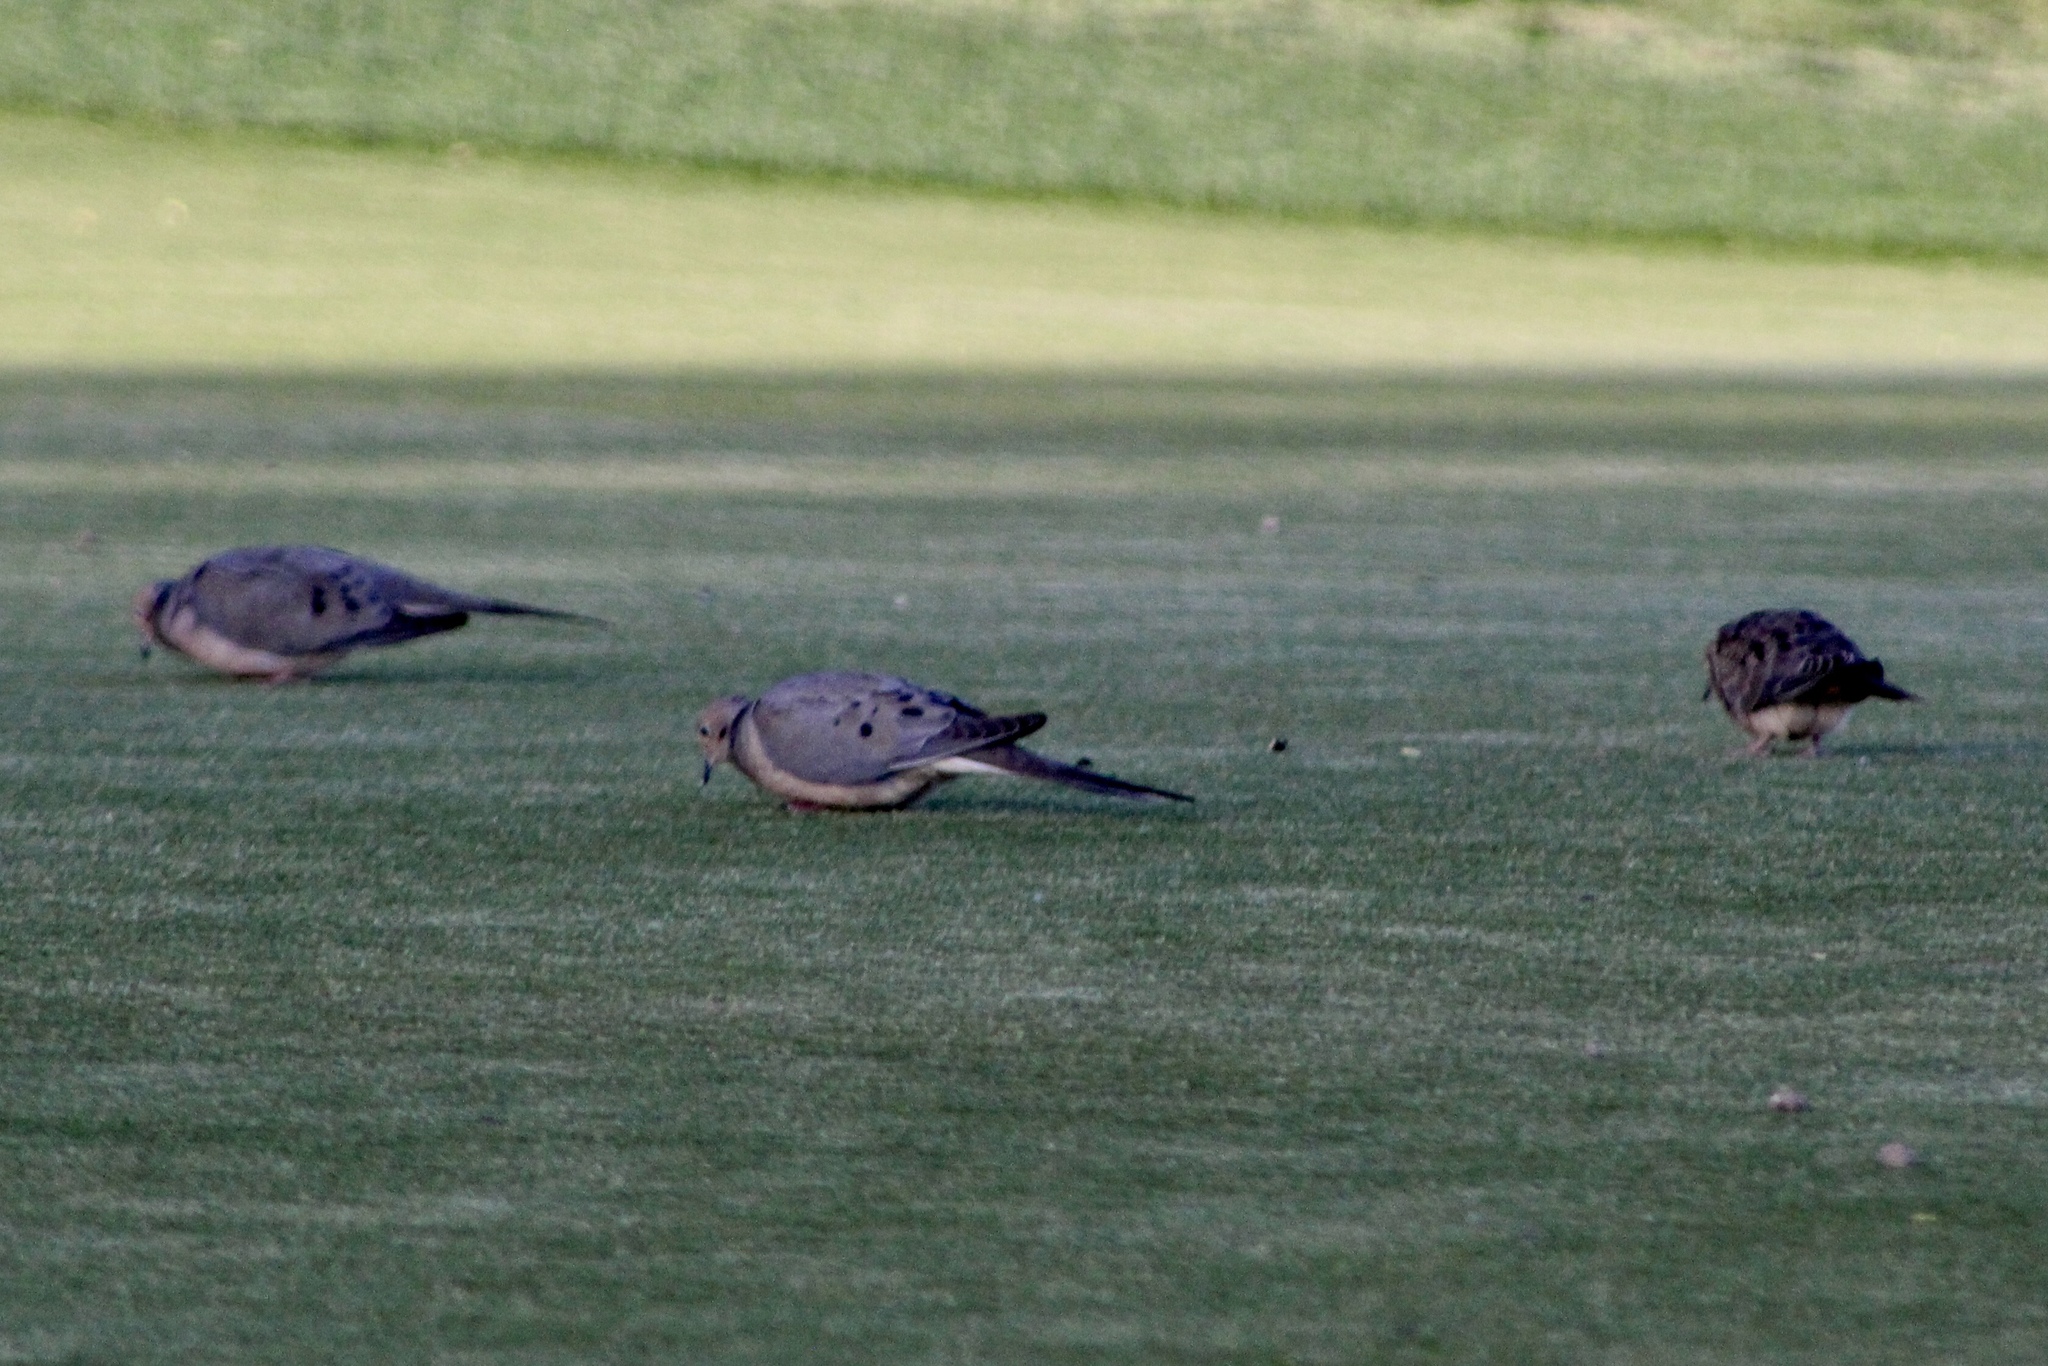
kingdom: Animalia
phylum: Chordata
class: Aves
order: Columbiformes
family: Columbidae
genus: Zenaida
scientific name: Zenaida macroura
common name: Mourning dove
